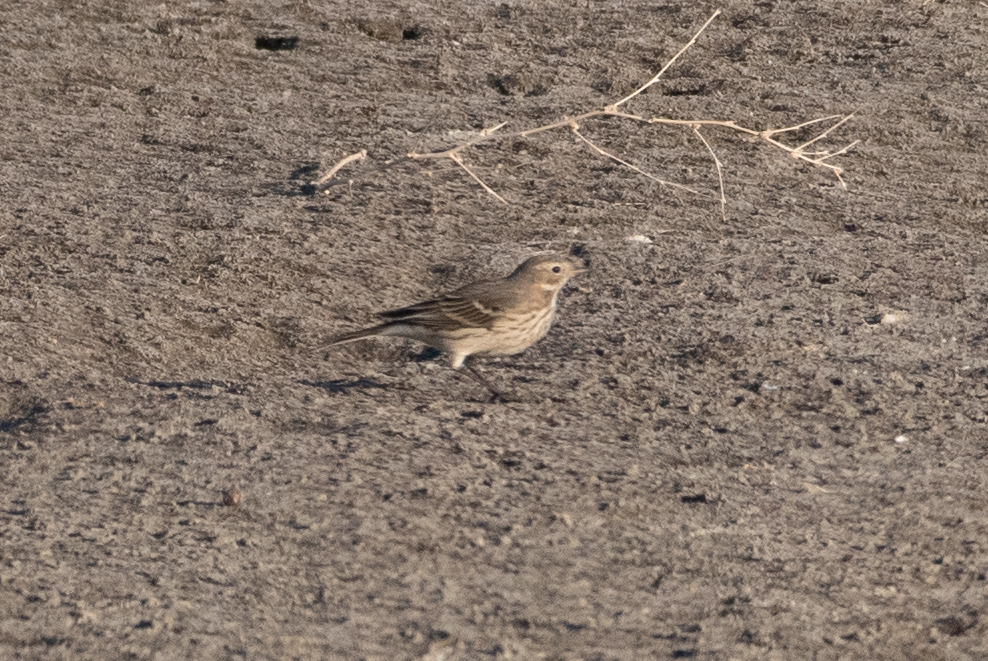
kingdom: Animalia
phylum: Chordata
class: Aves
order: Passeriformes
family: Motacillidae
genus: Anthus
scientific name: Anthus rubescens
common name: Buff-bellied pipit
